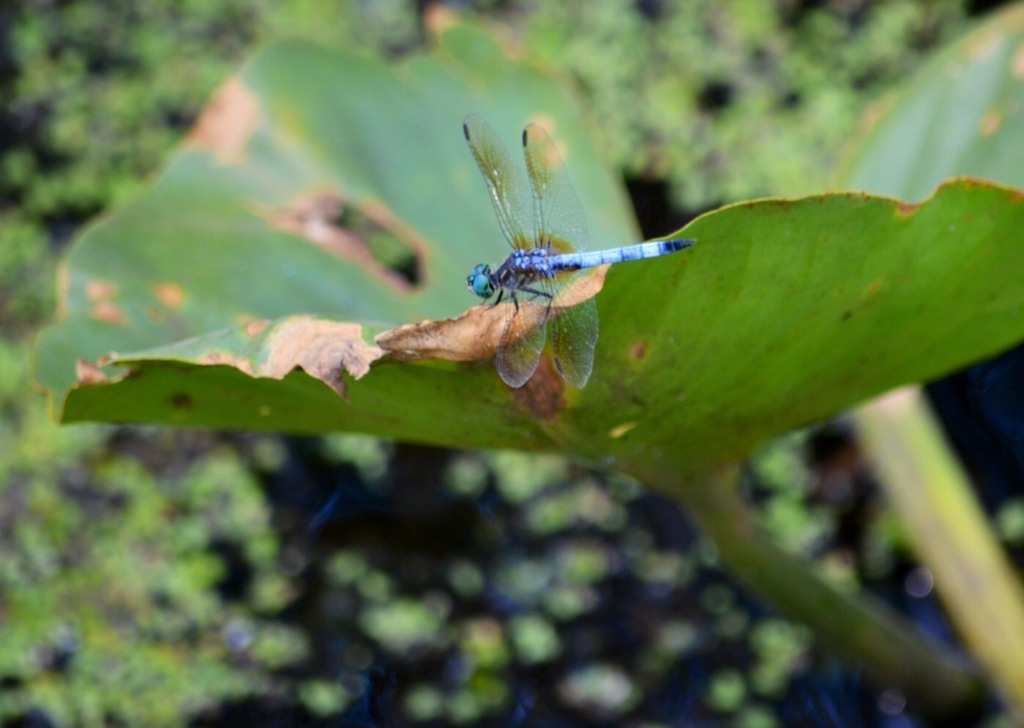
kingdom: Animalia
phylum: Arthropoda
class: Insecta
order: Odonata
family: Libellulidae
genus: Pachydiplax
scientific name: Pachydiplax longipennis
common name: Blue dasher
